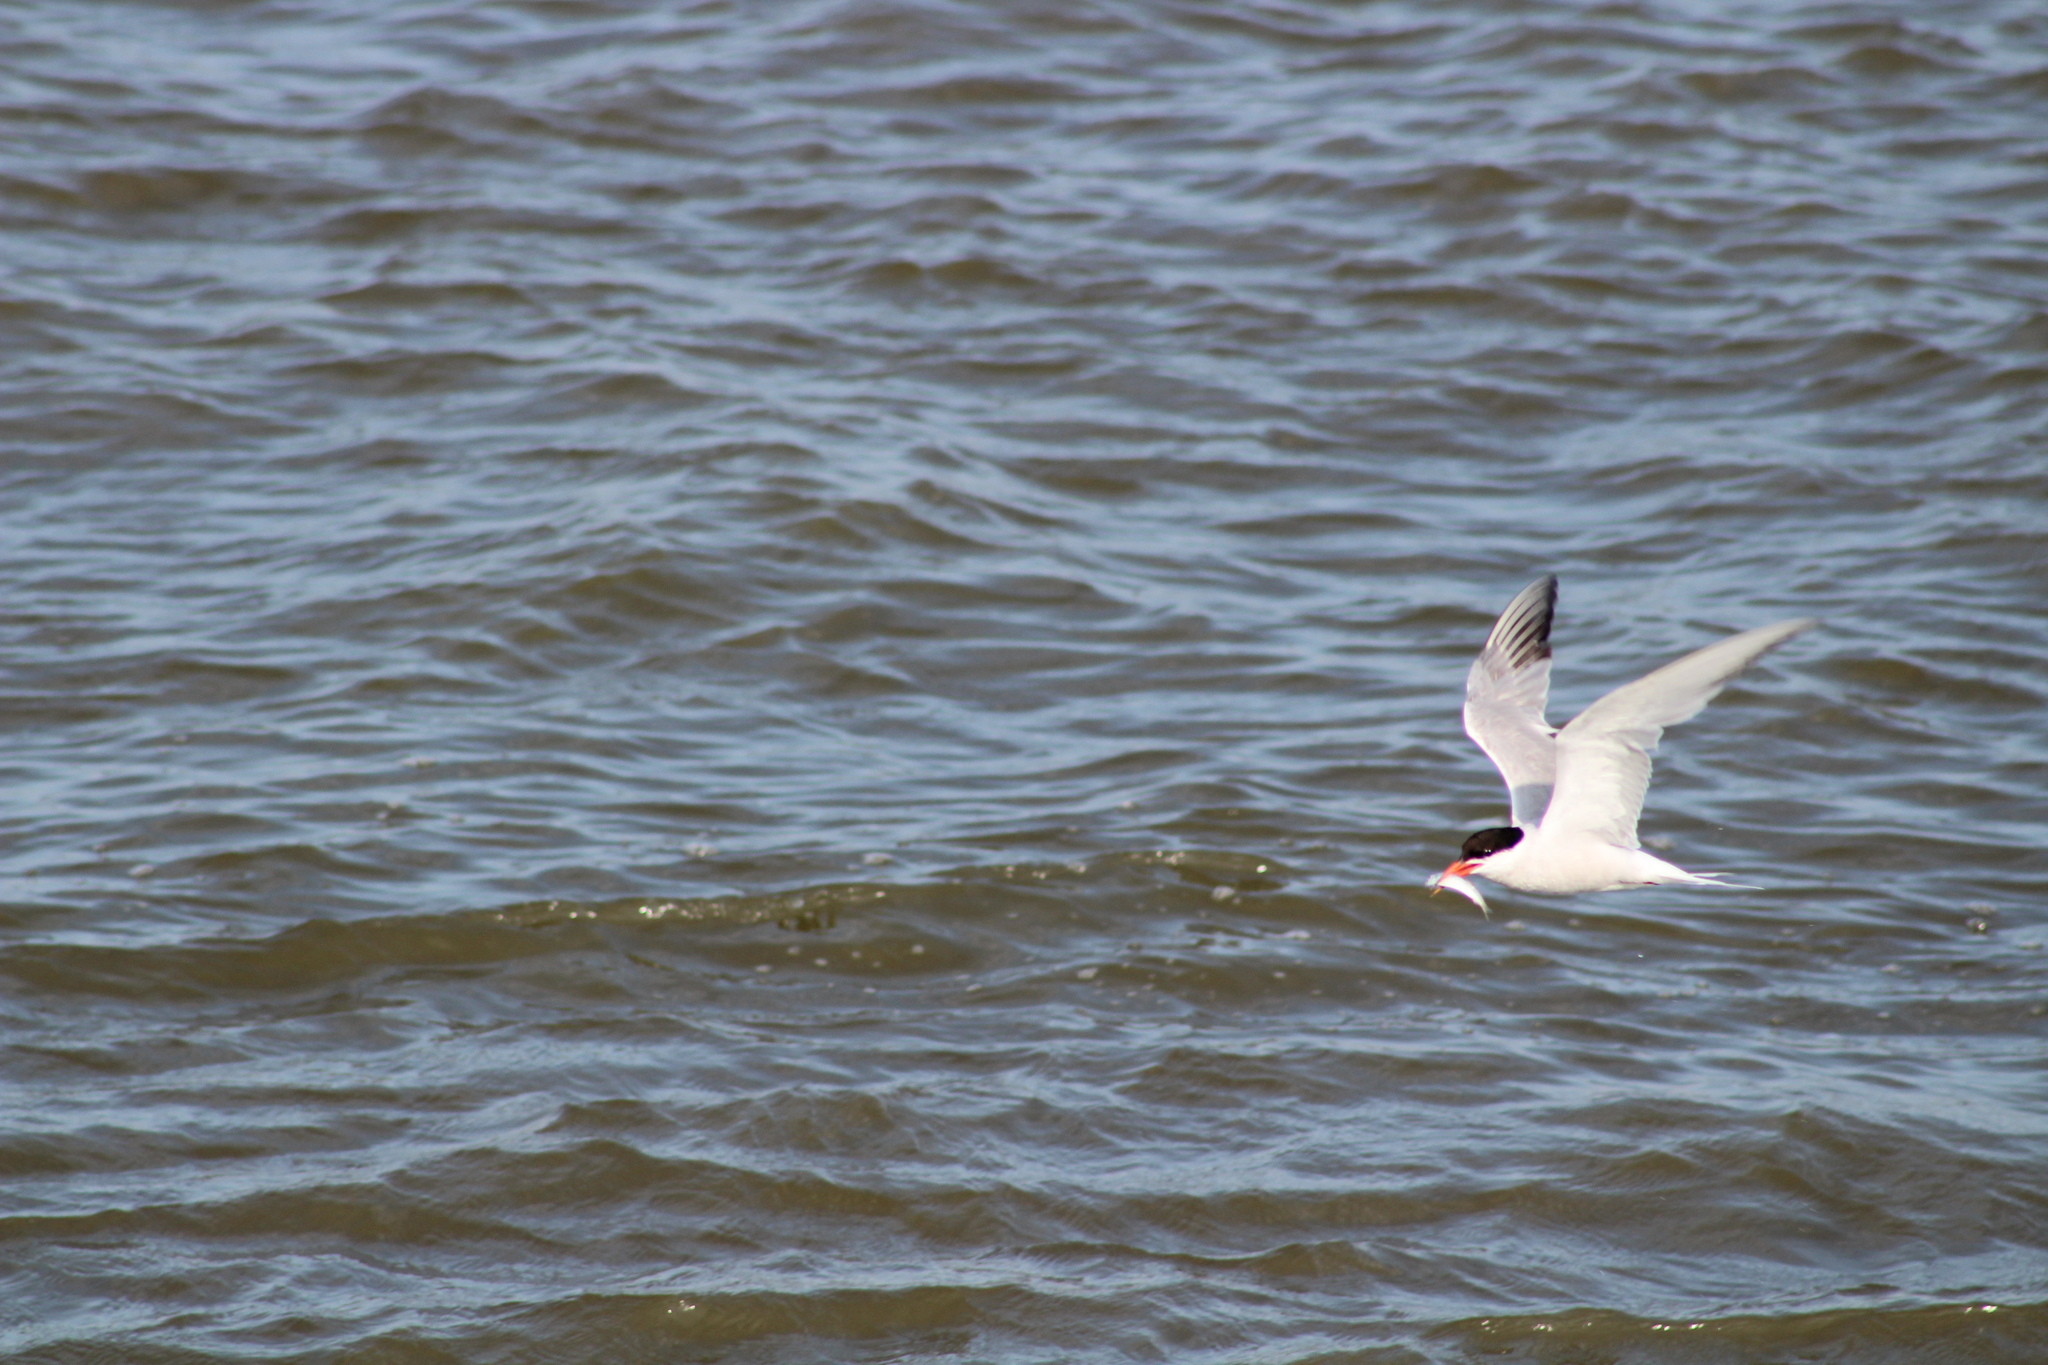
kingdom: Animalia
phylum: Chordata
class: Aves
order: Charadriiformes
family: Laridae
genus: Sterna
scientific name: Sterna hirundo
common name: Common tern
